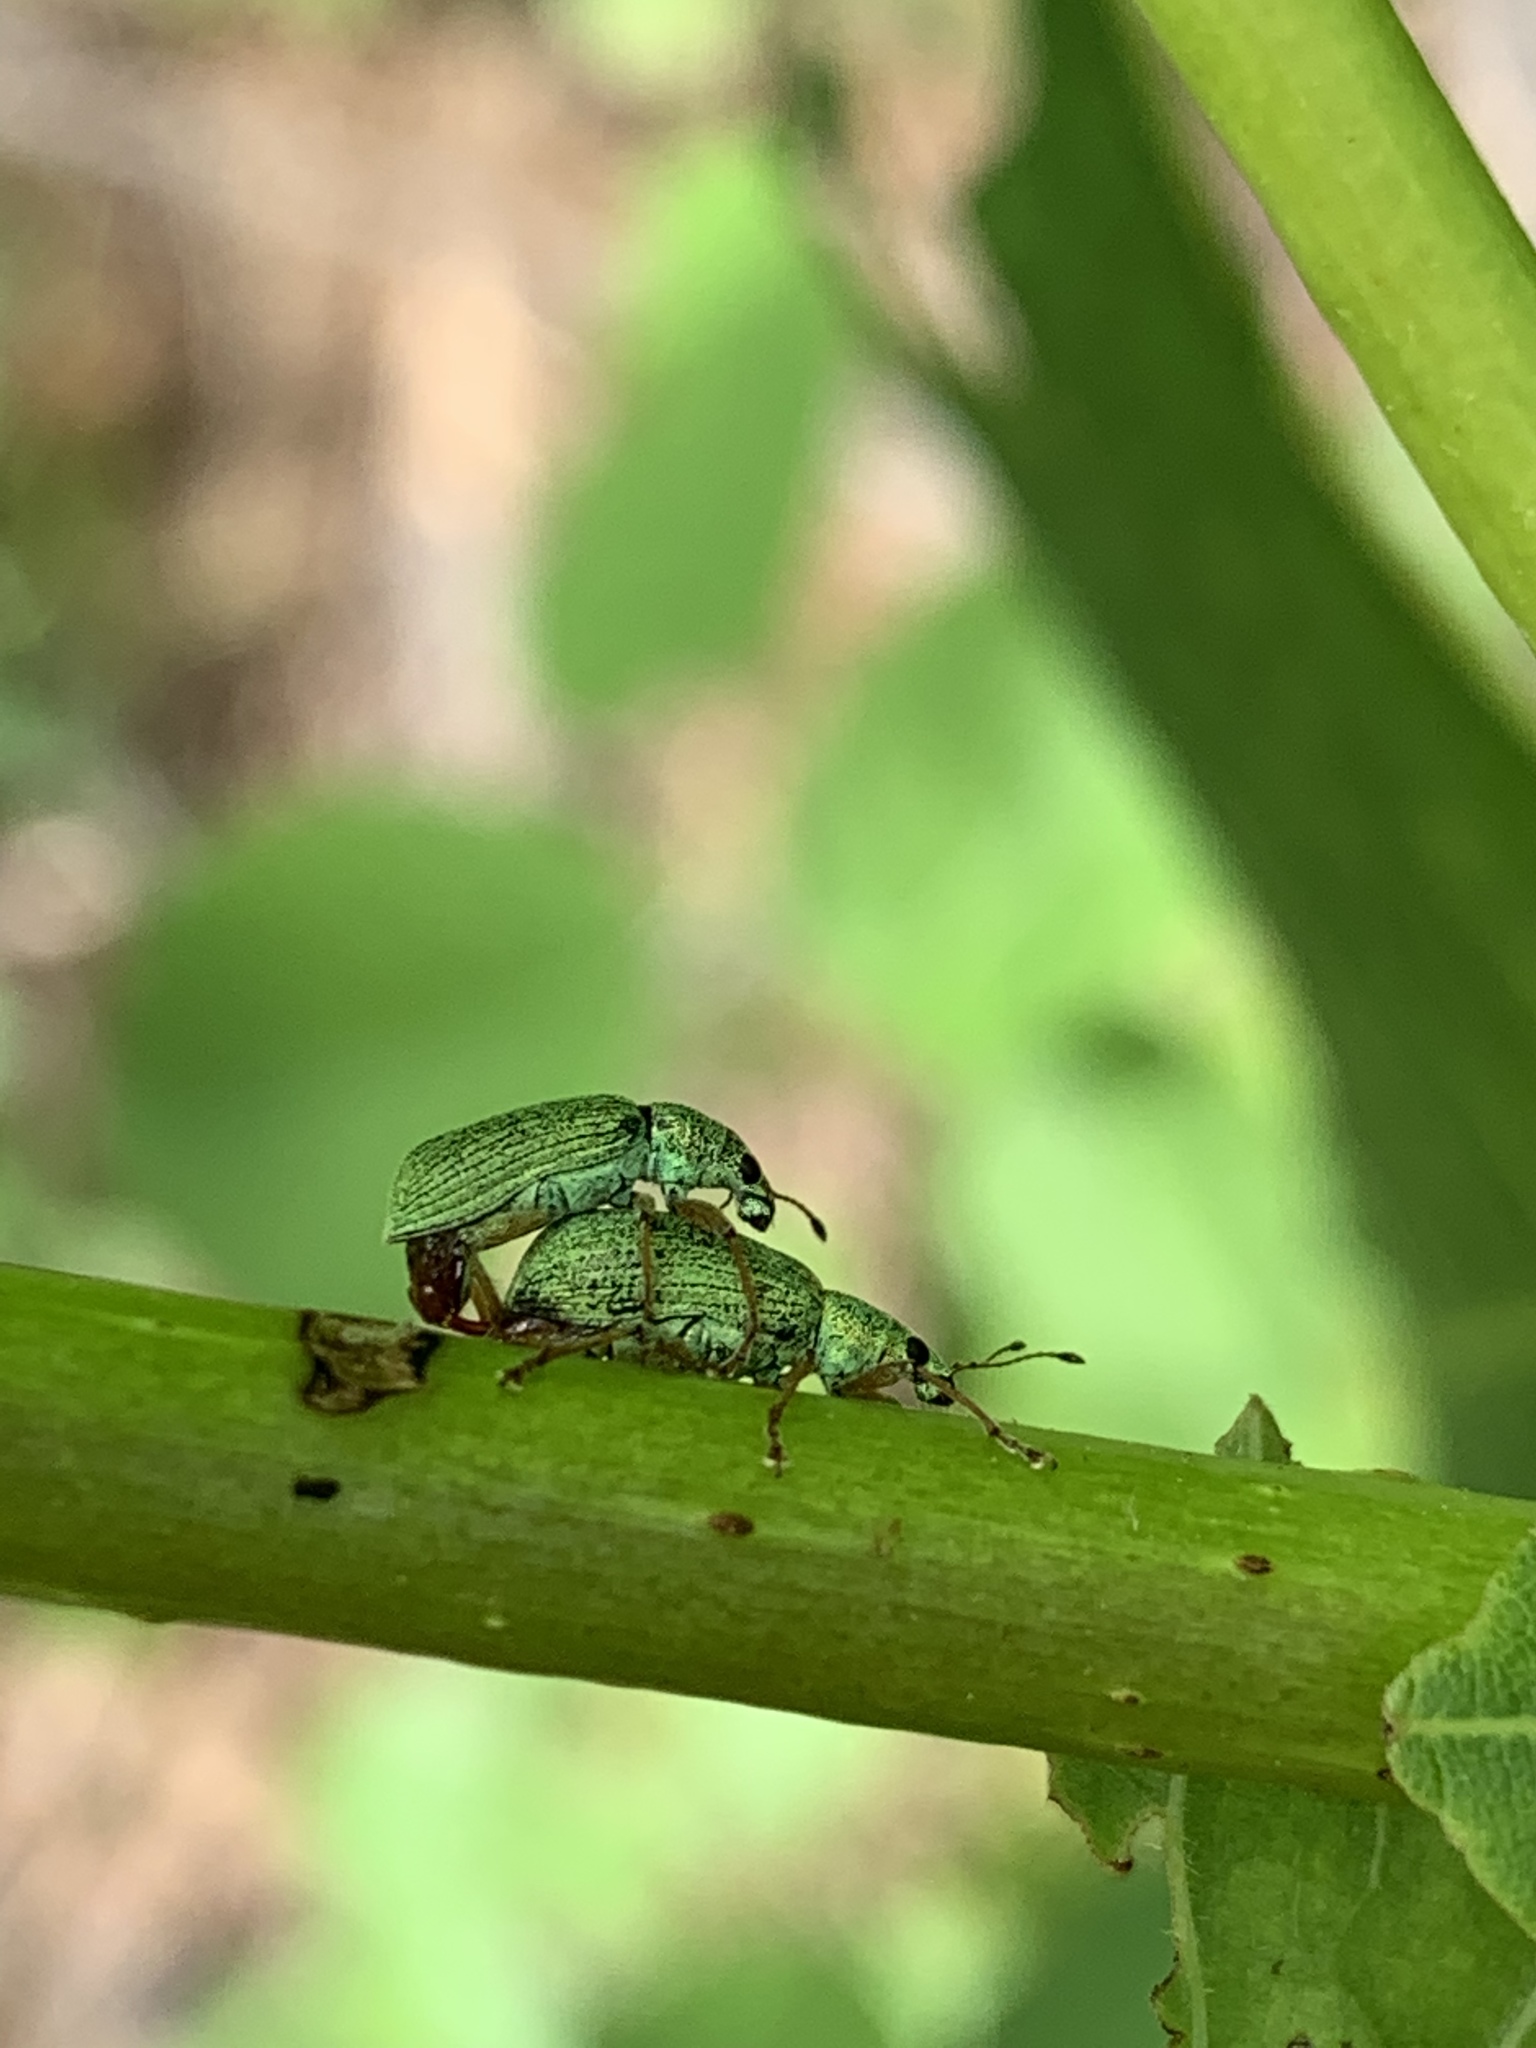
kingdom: Animalia
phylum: Arthropoda
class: Insecta
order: Coleoptera
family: Curculionidae
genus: Polydrusus
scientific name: Polydrusus formosus
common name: Weevil
